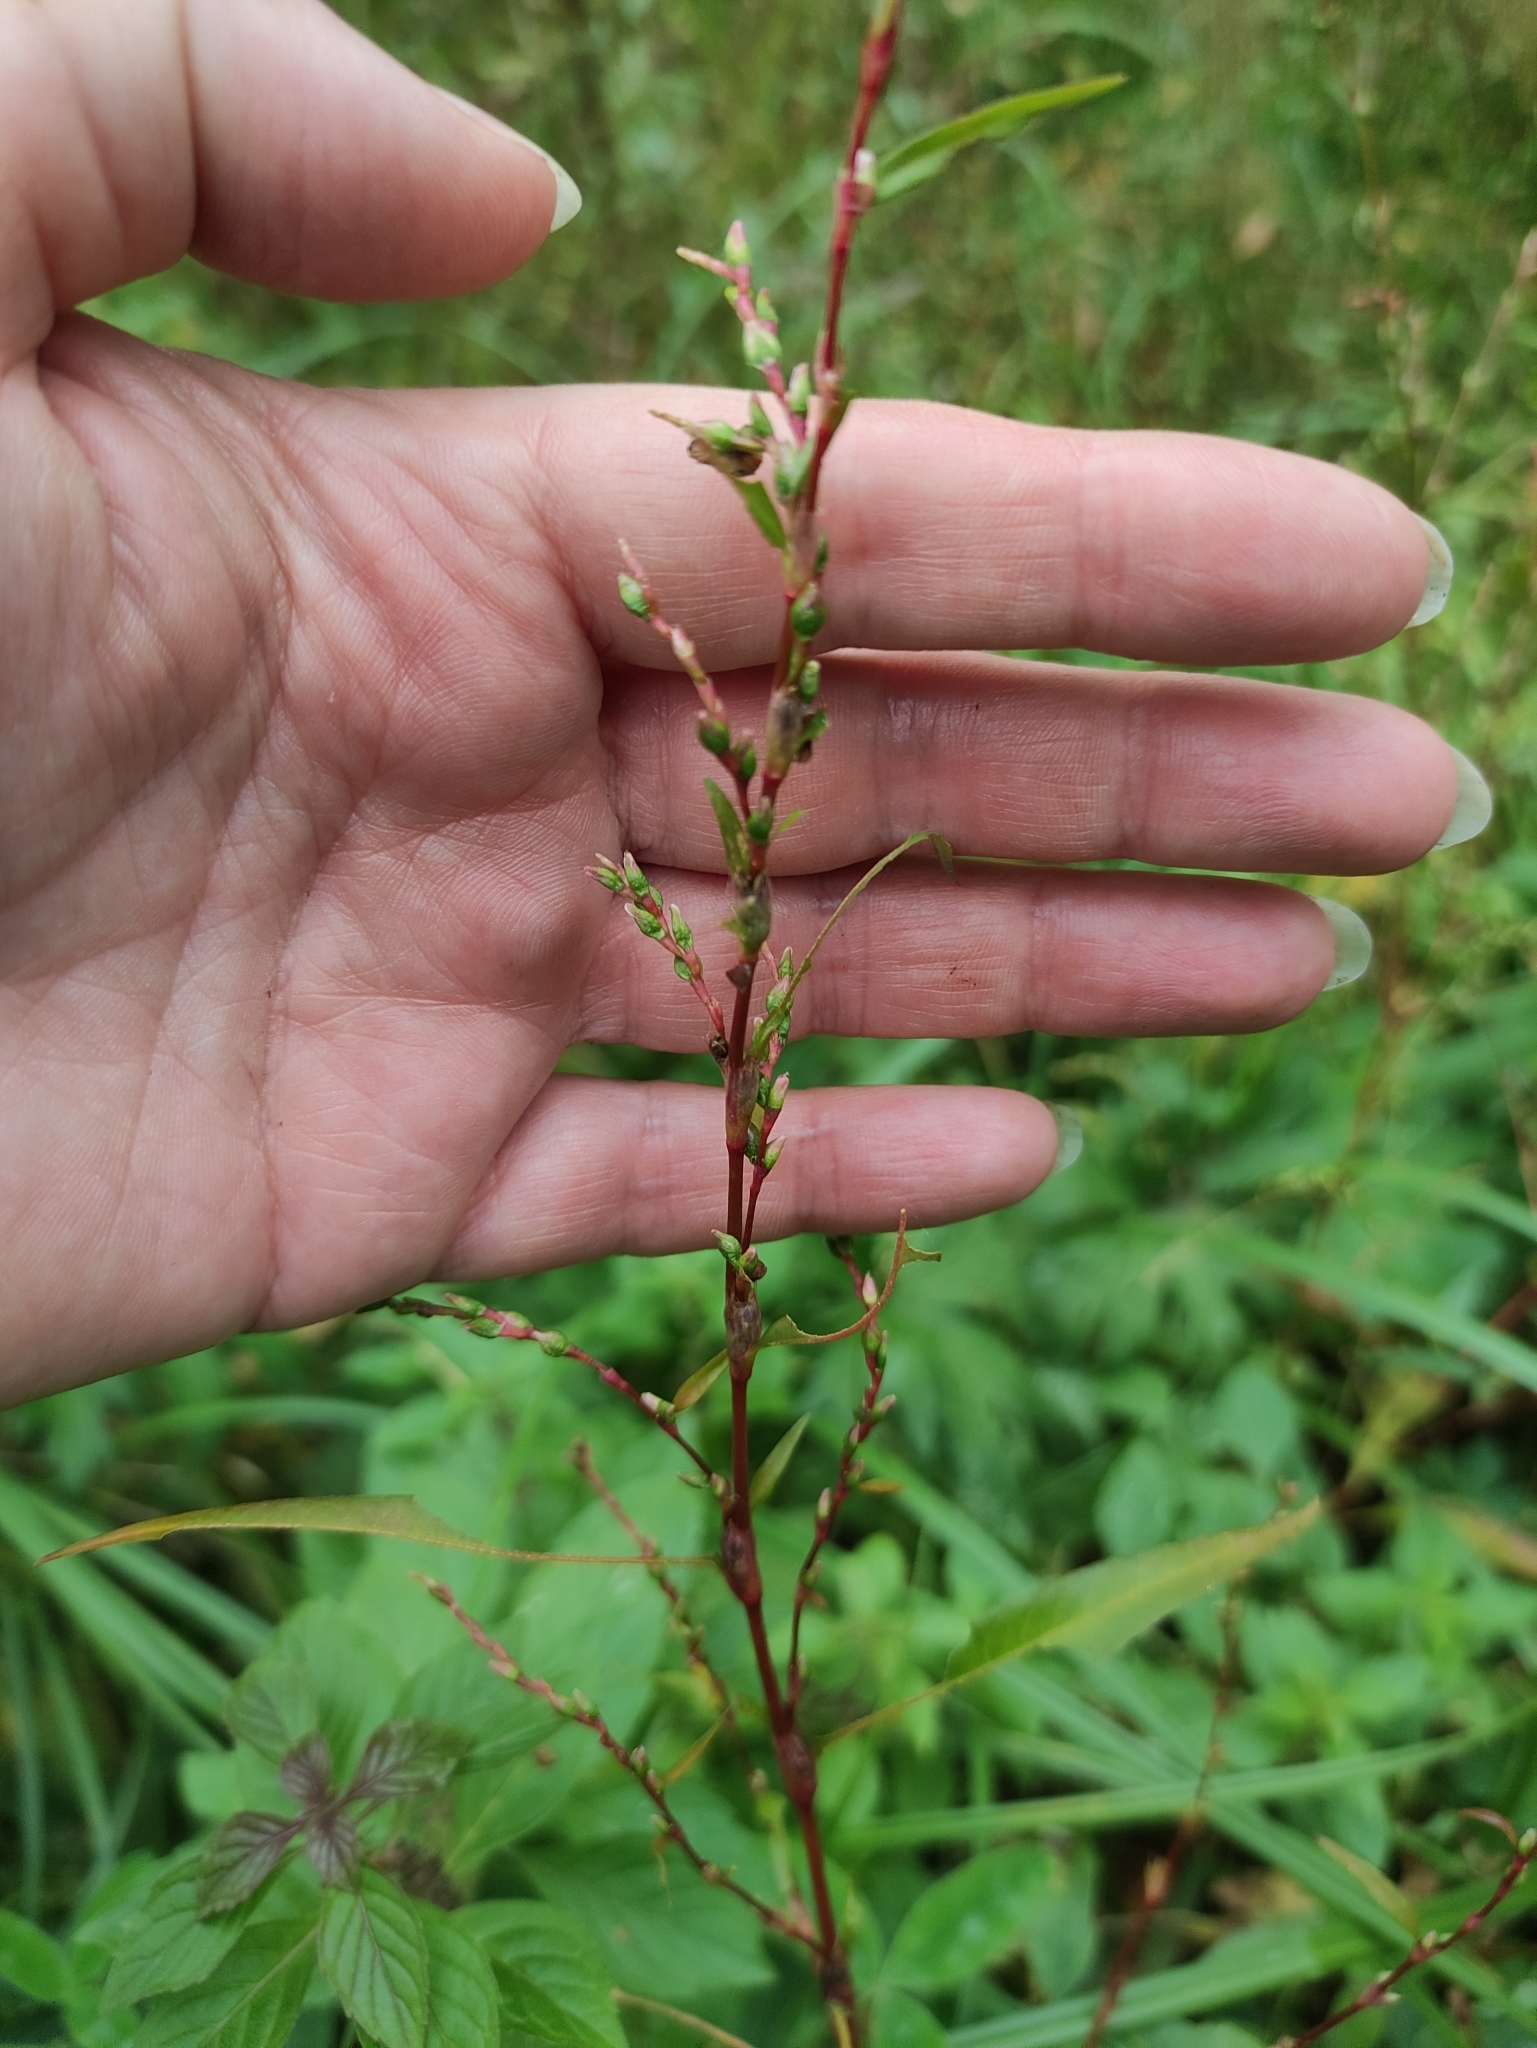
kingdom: Plantae
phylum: Tracheophyta
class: Magnoliopsida
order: Caryophyllales
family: Polygonaceae
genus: Persicaria
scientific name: Persicaria hydropiper
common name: Water-pepper
